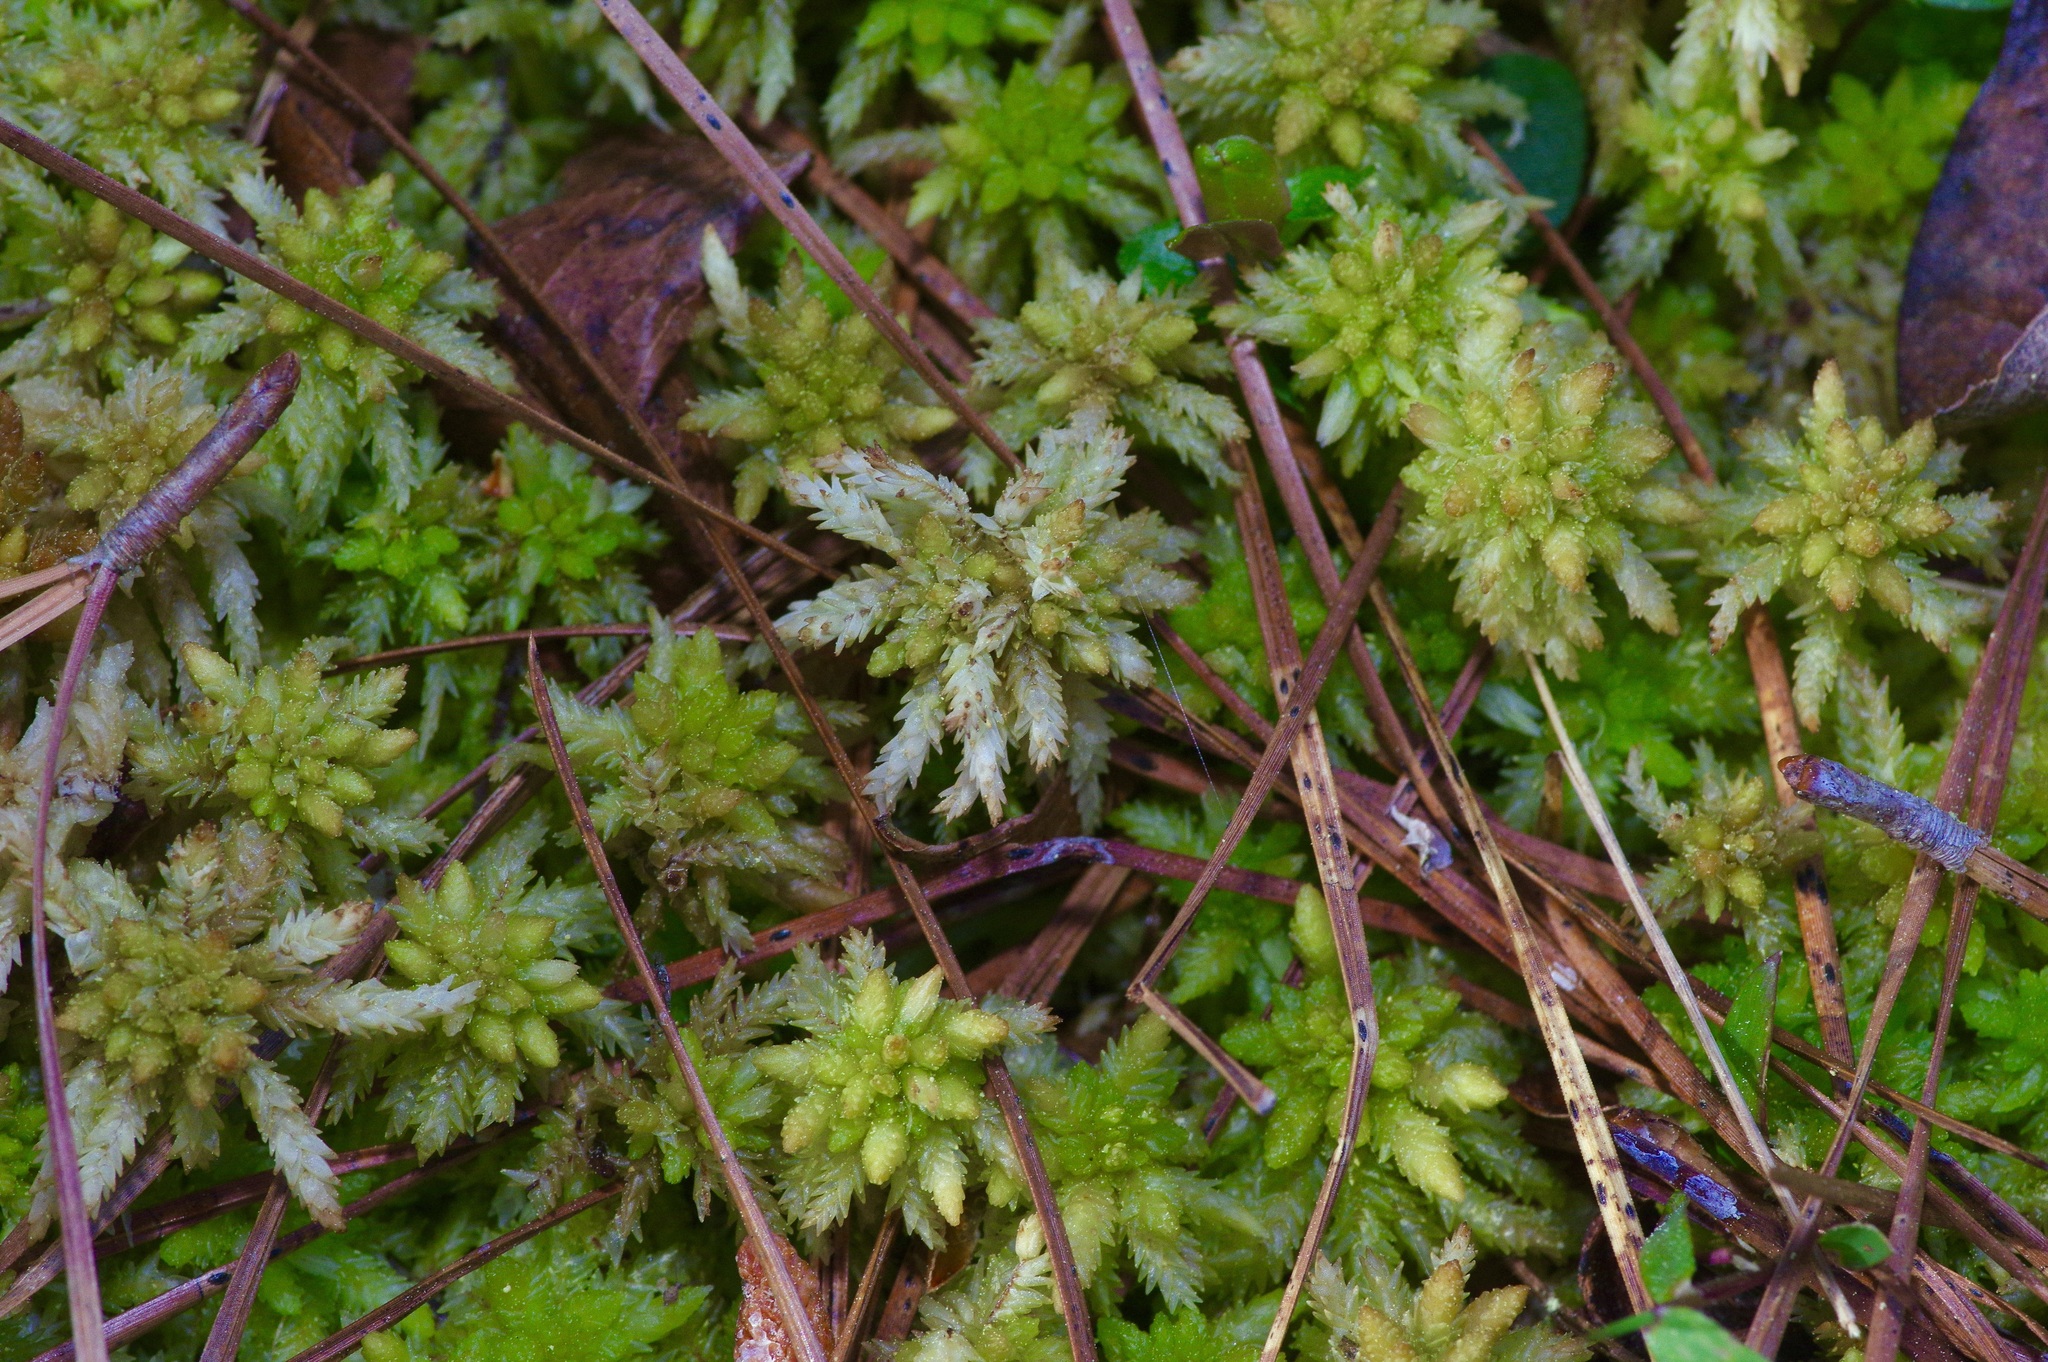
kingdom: Plantae
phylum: Bryophyta
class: Sphagnopsida
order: Sphagnales
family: Sphagnaceae
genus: Sphagnum
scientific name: Sphagnum lescurii
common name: Lesquereux's peat moss
